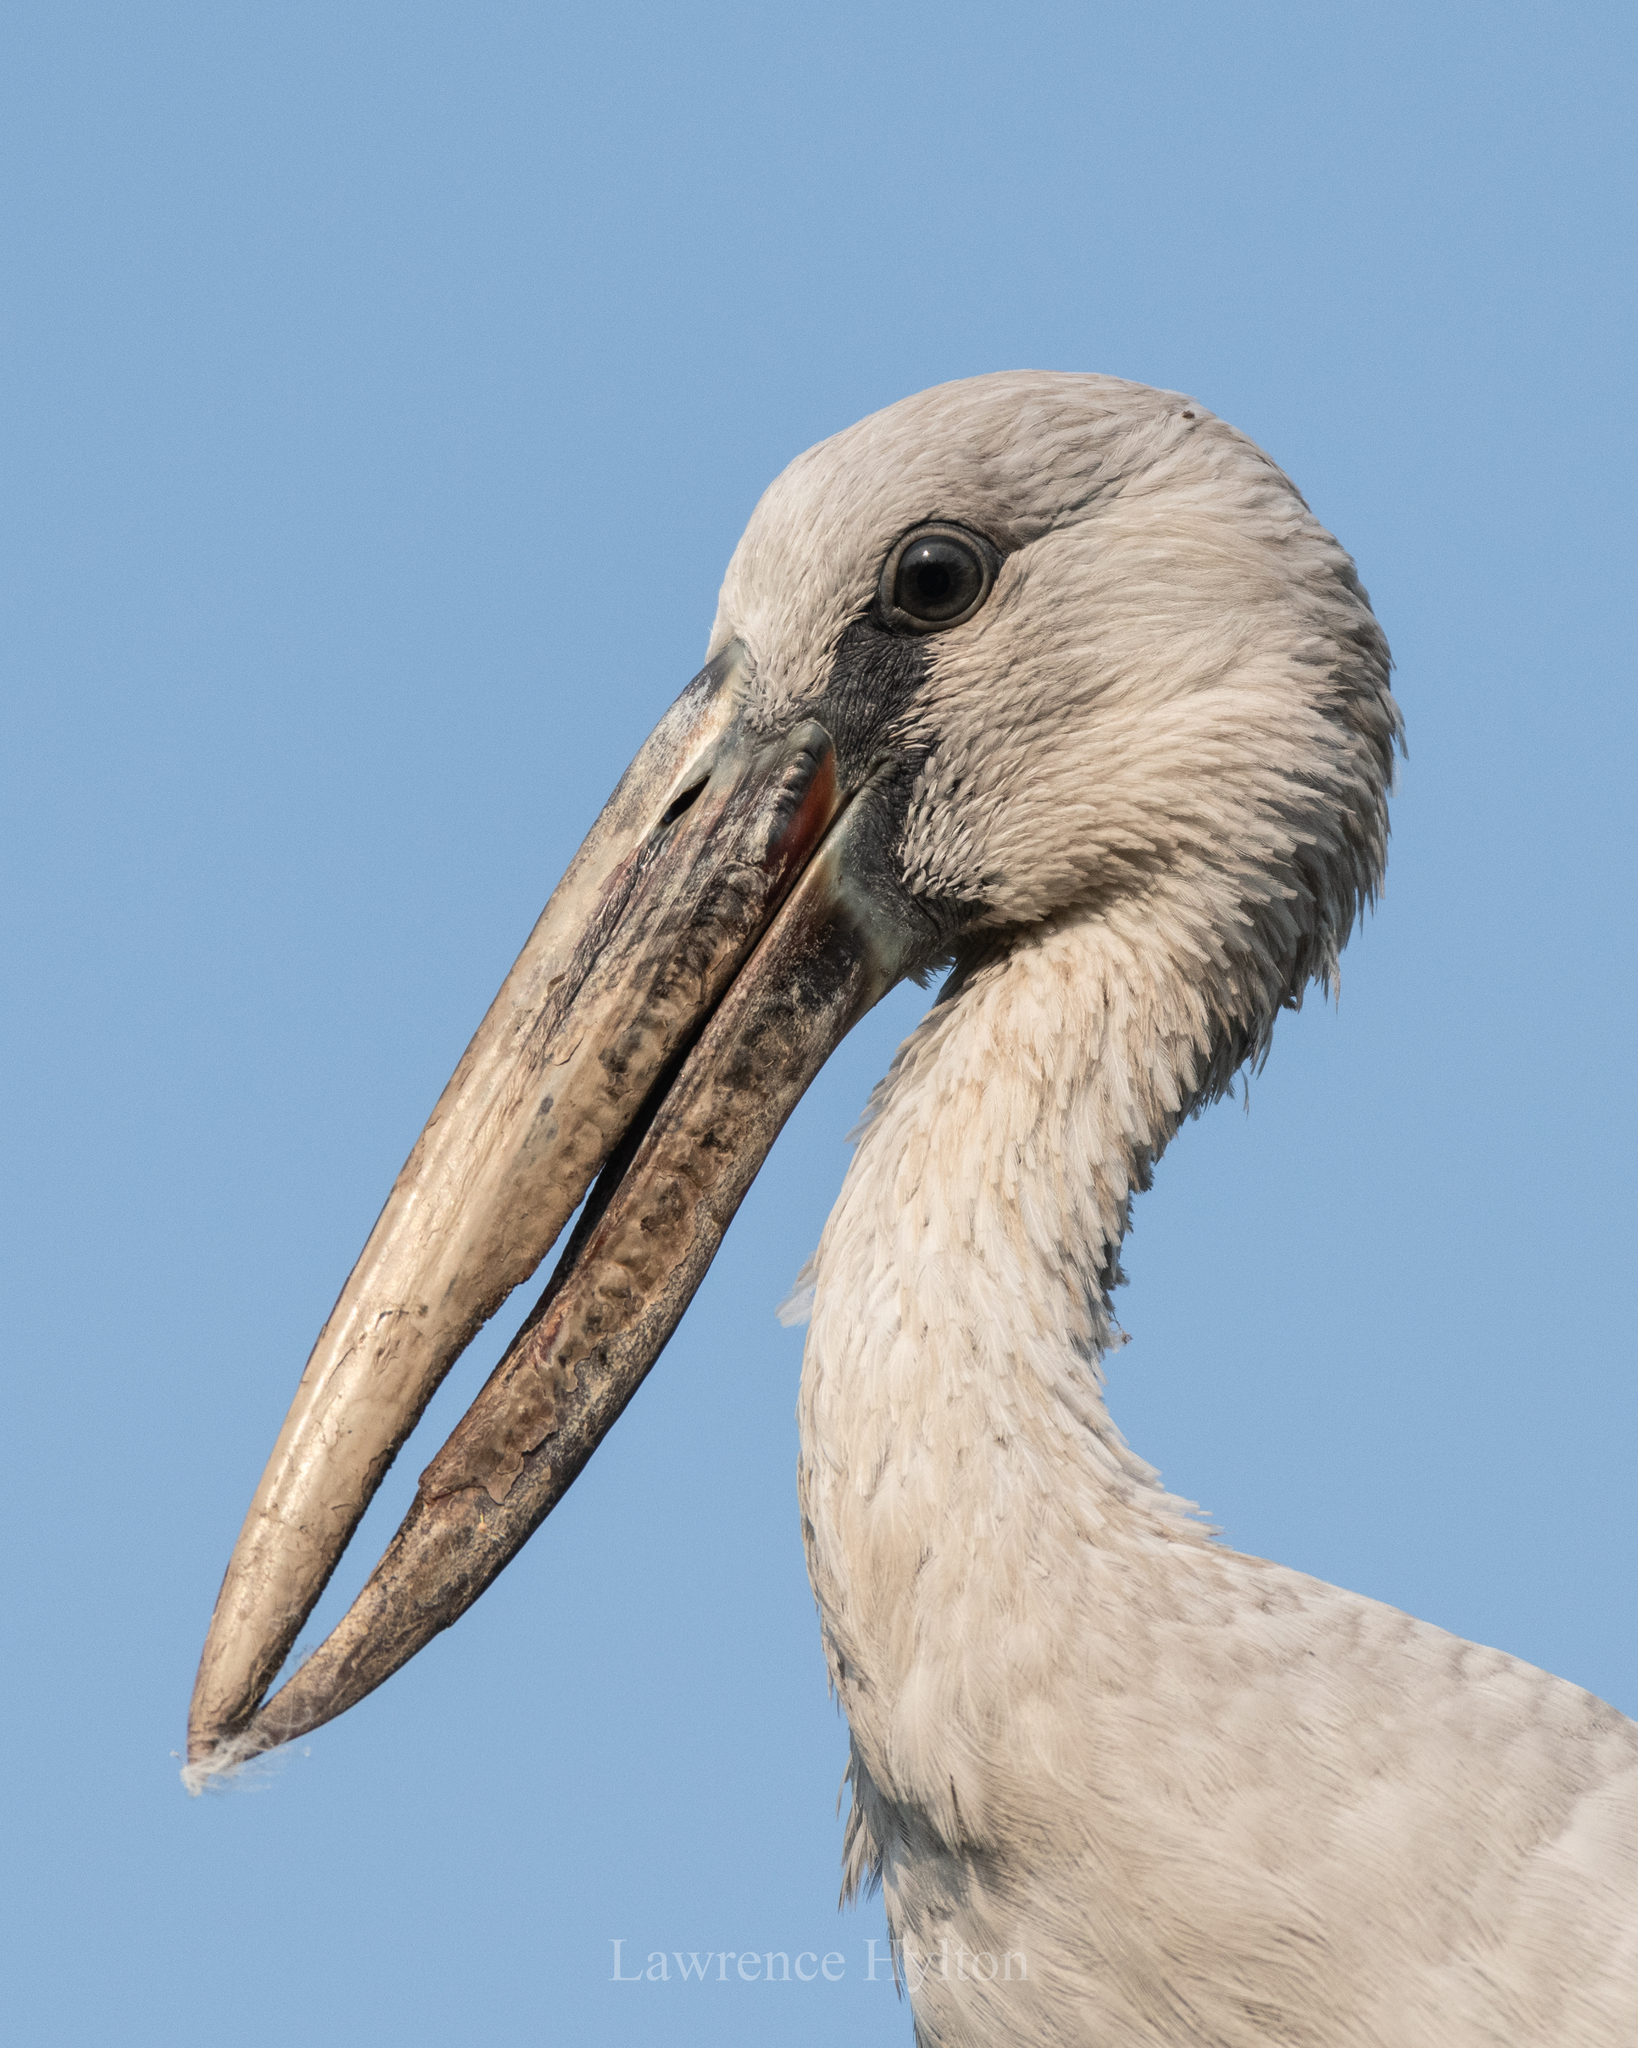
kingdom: Animalia
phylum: Chordata
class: Aves
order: Ciconiiformes
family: Ciconiidae
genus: Anastomus
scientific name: Anastomus oscitans
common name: Asian openbill
